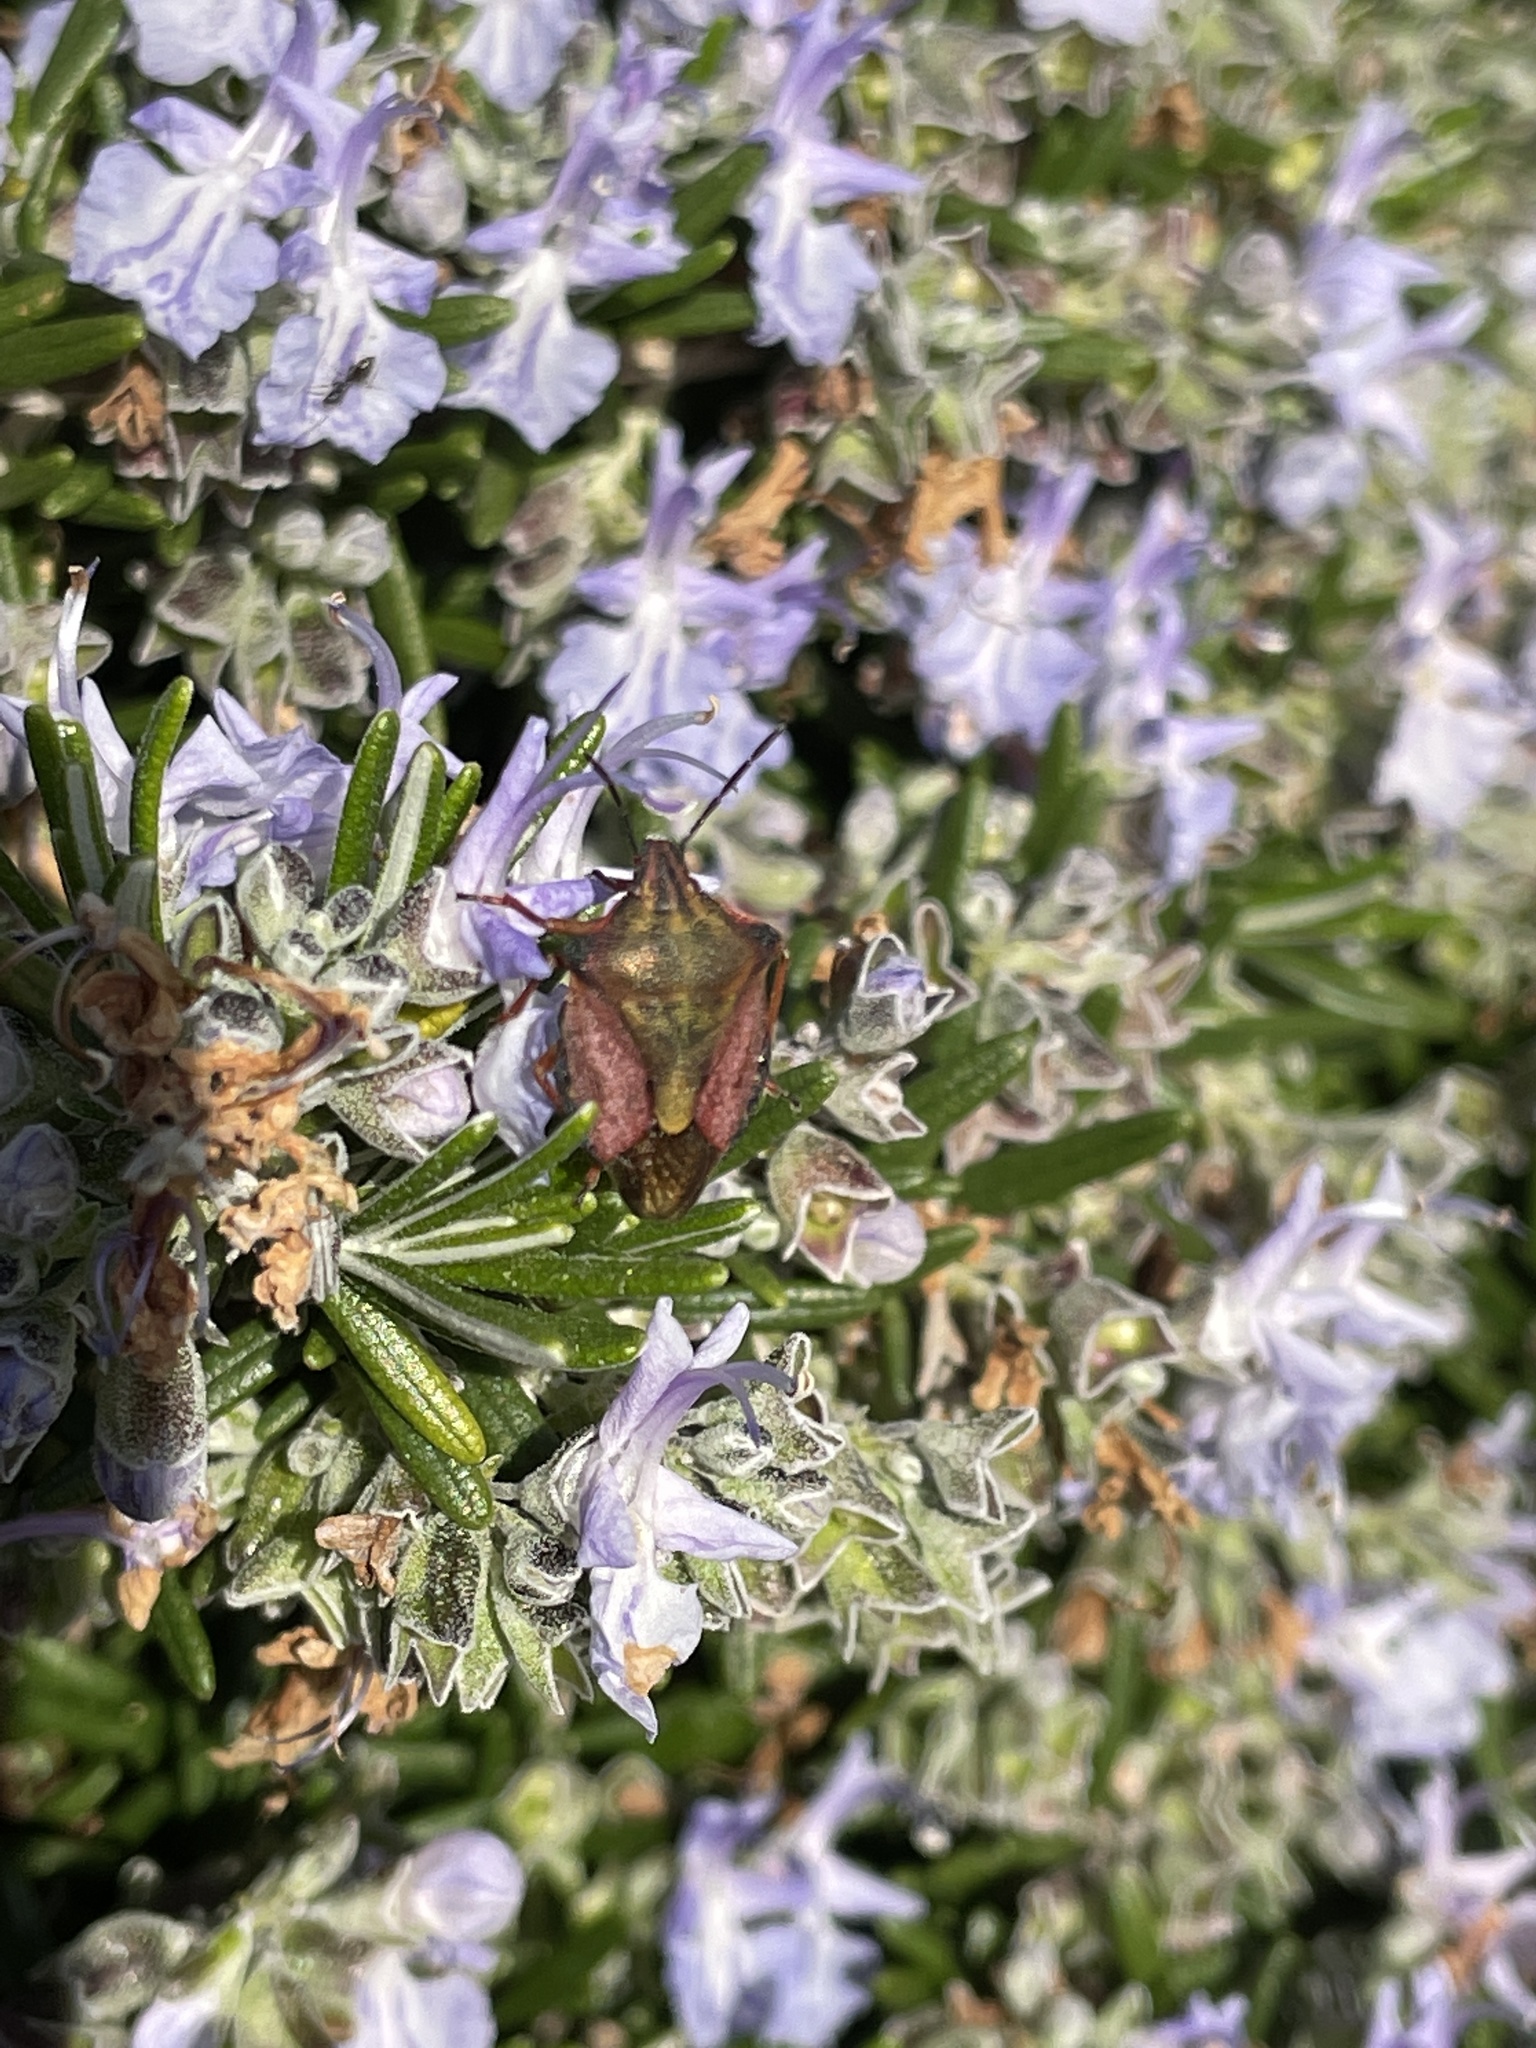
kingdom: Animalia
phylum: Arthropoda
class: Insecta
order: Hemiptera
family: Pentatomidae
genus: Carpocoris
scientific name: Carpocoris mediterraneus
